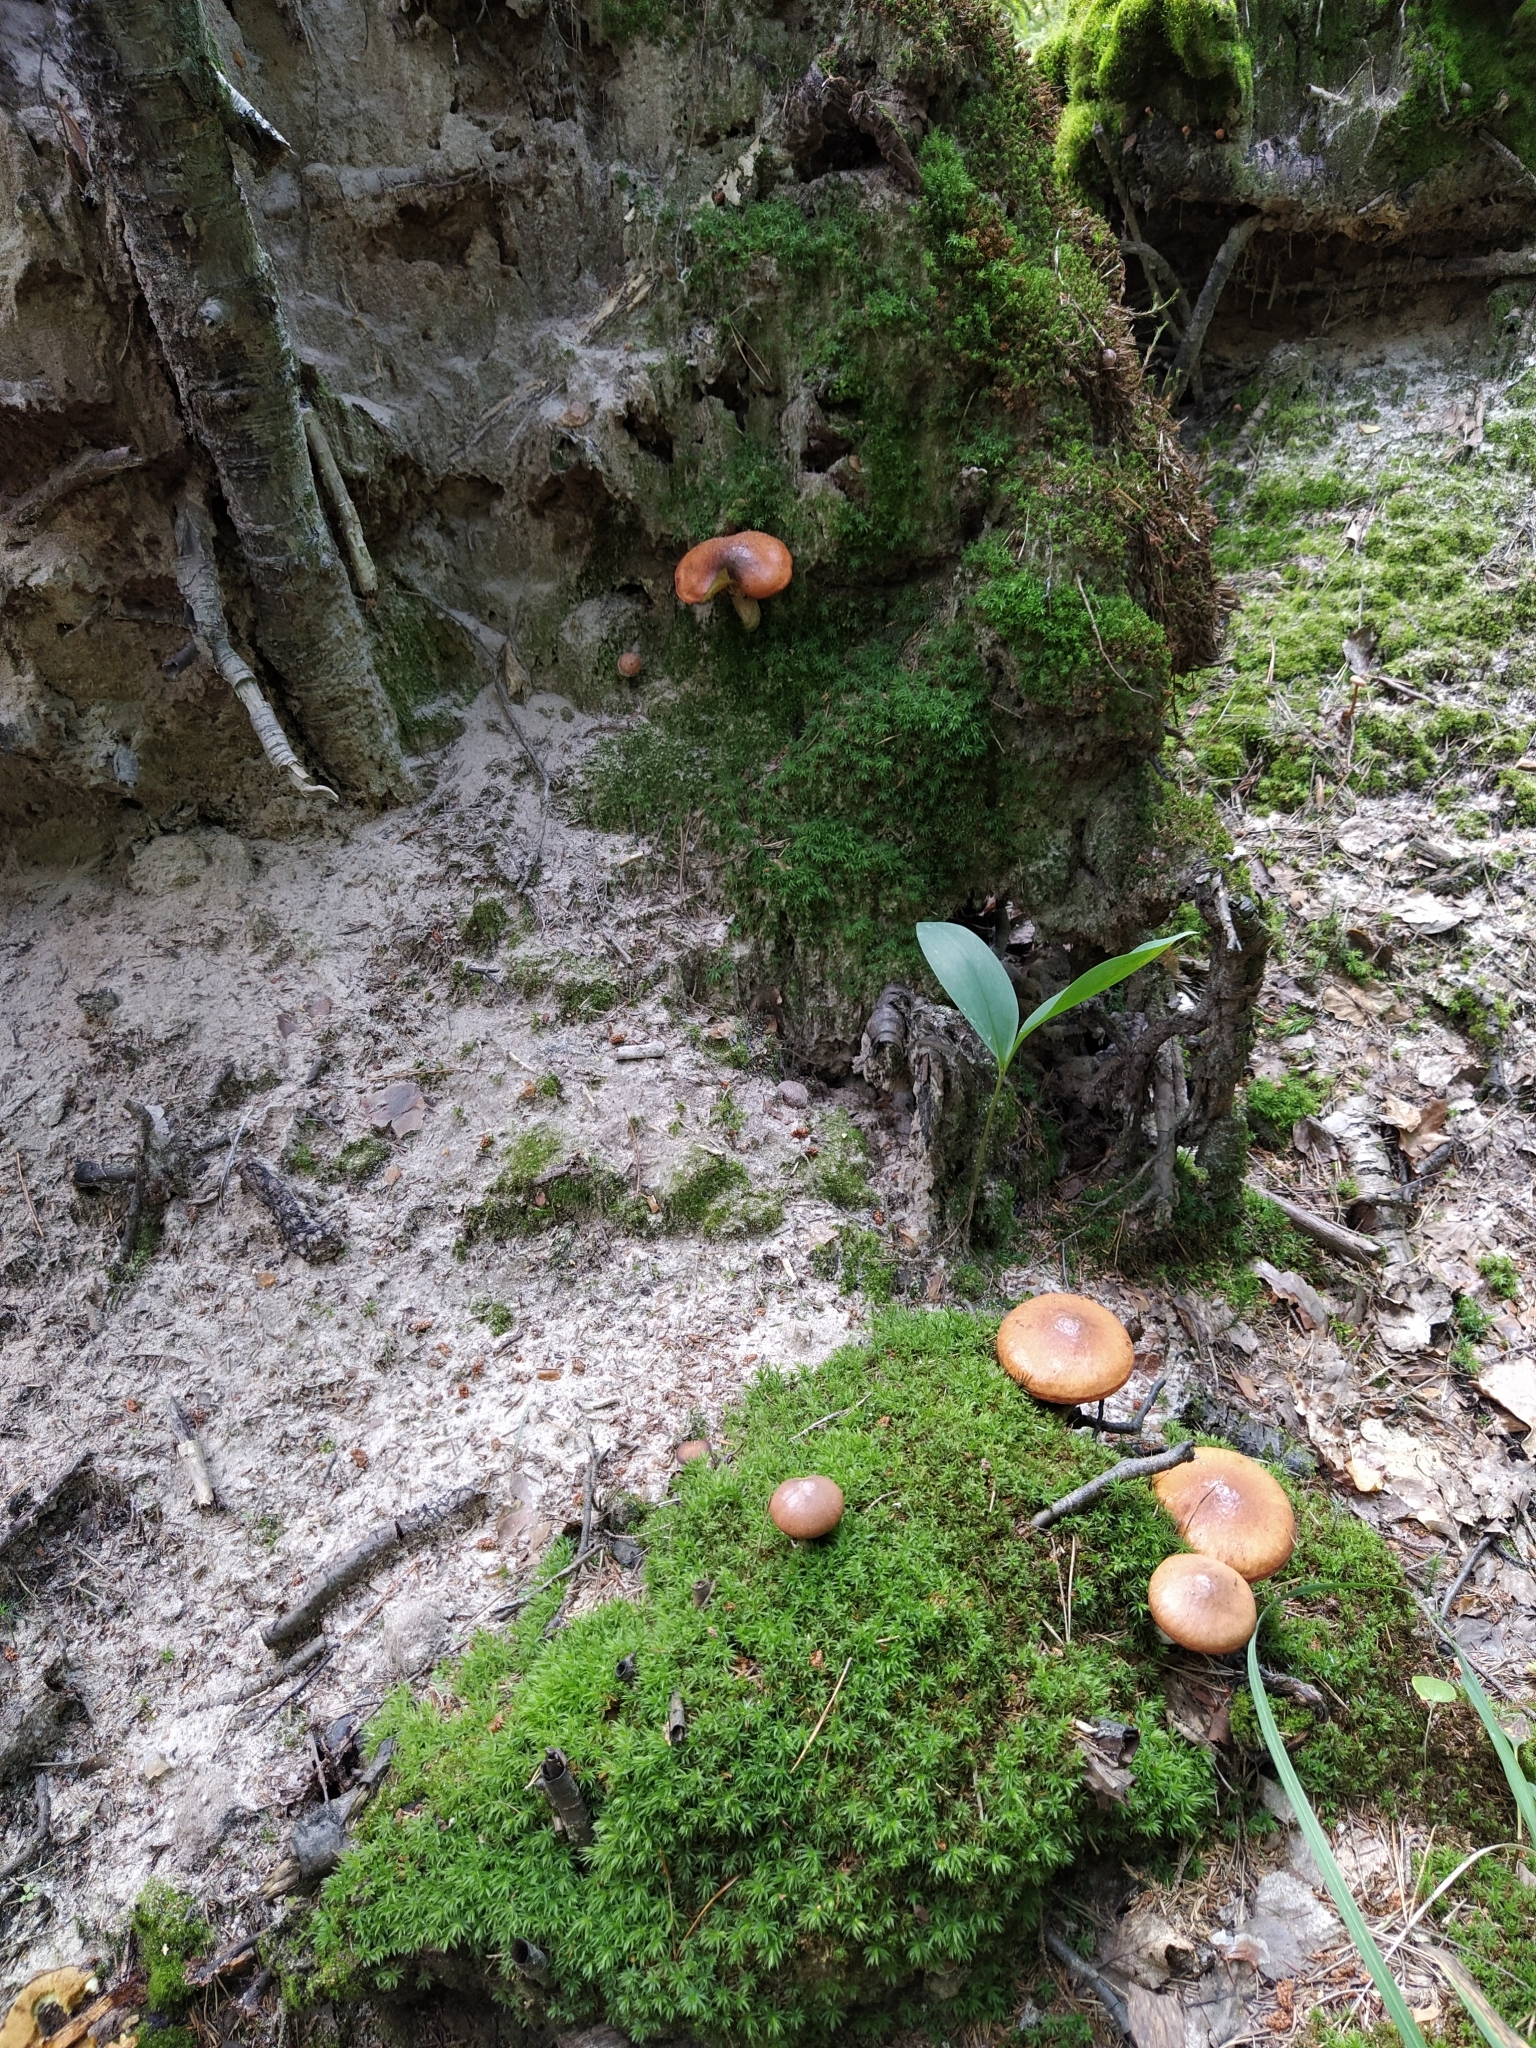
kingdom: Fungi
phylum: Basidiomycota
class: Agaricomycetes
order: Boletales
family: Suillaceae
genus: Suillus
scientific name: Suillus luteus
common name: Slippery jack
